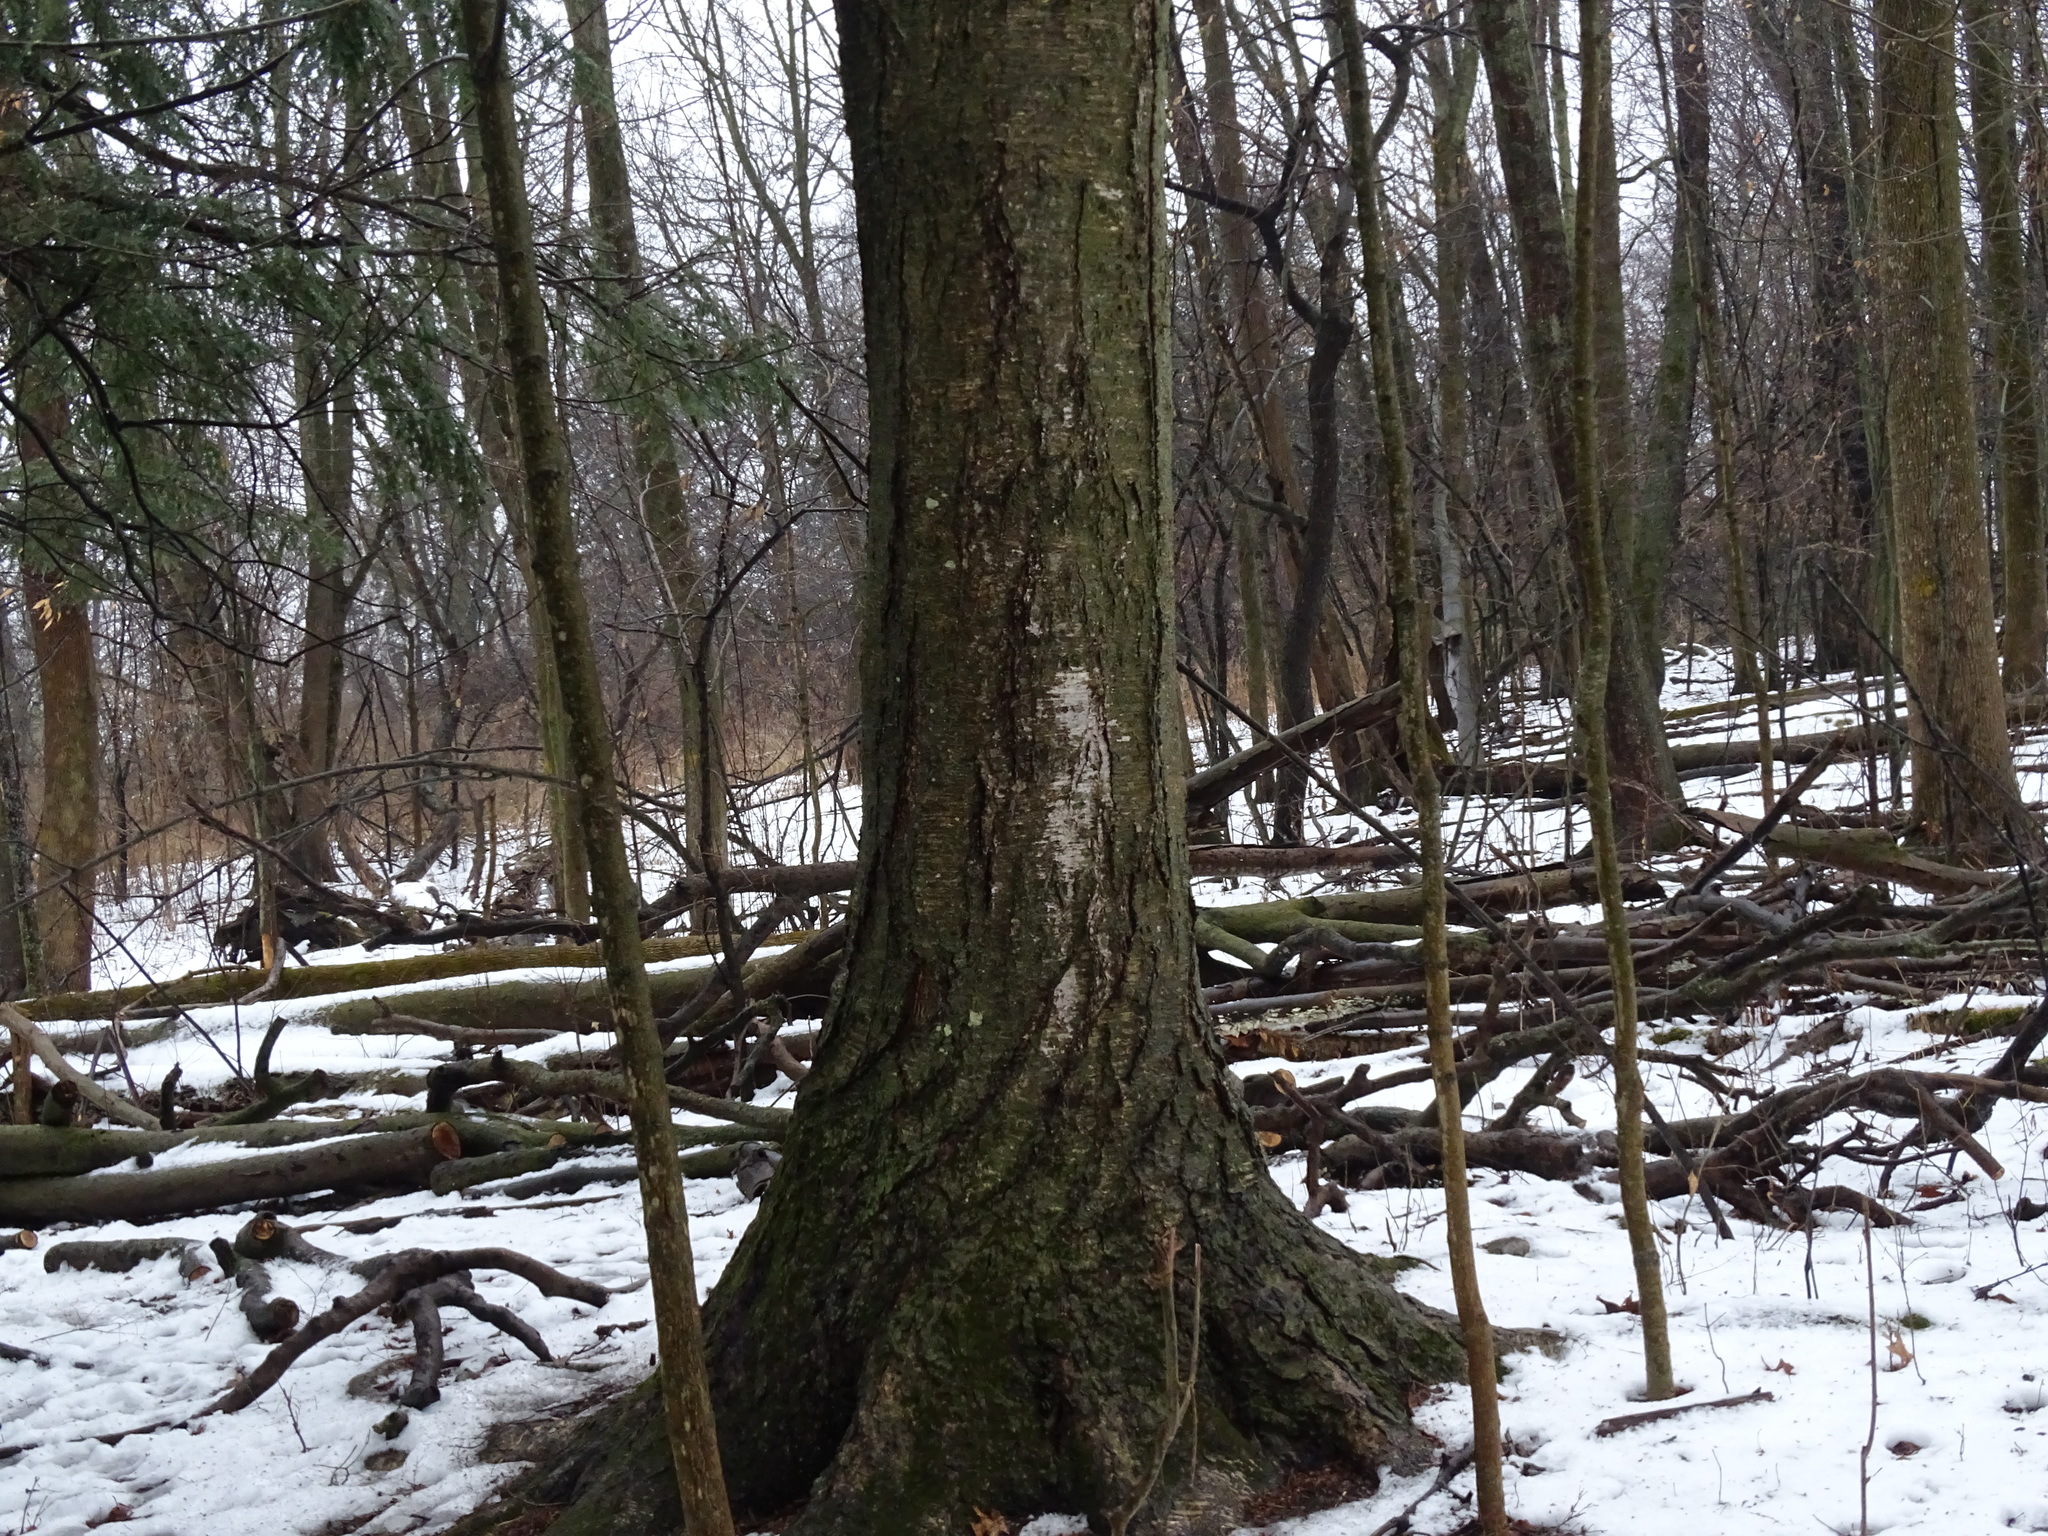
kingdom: Plantae
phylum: Tracheophyta
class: Magnoliopsida
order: Fagales
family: Betulaceae
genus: Betula
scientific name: Betula alleghaniensis
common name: Yellow birch
